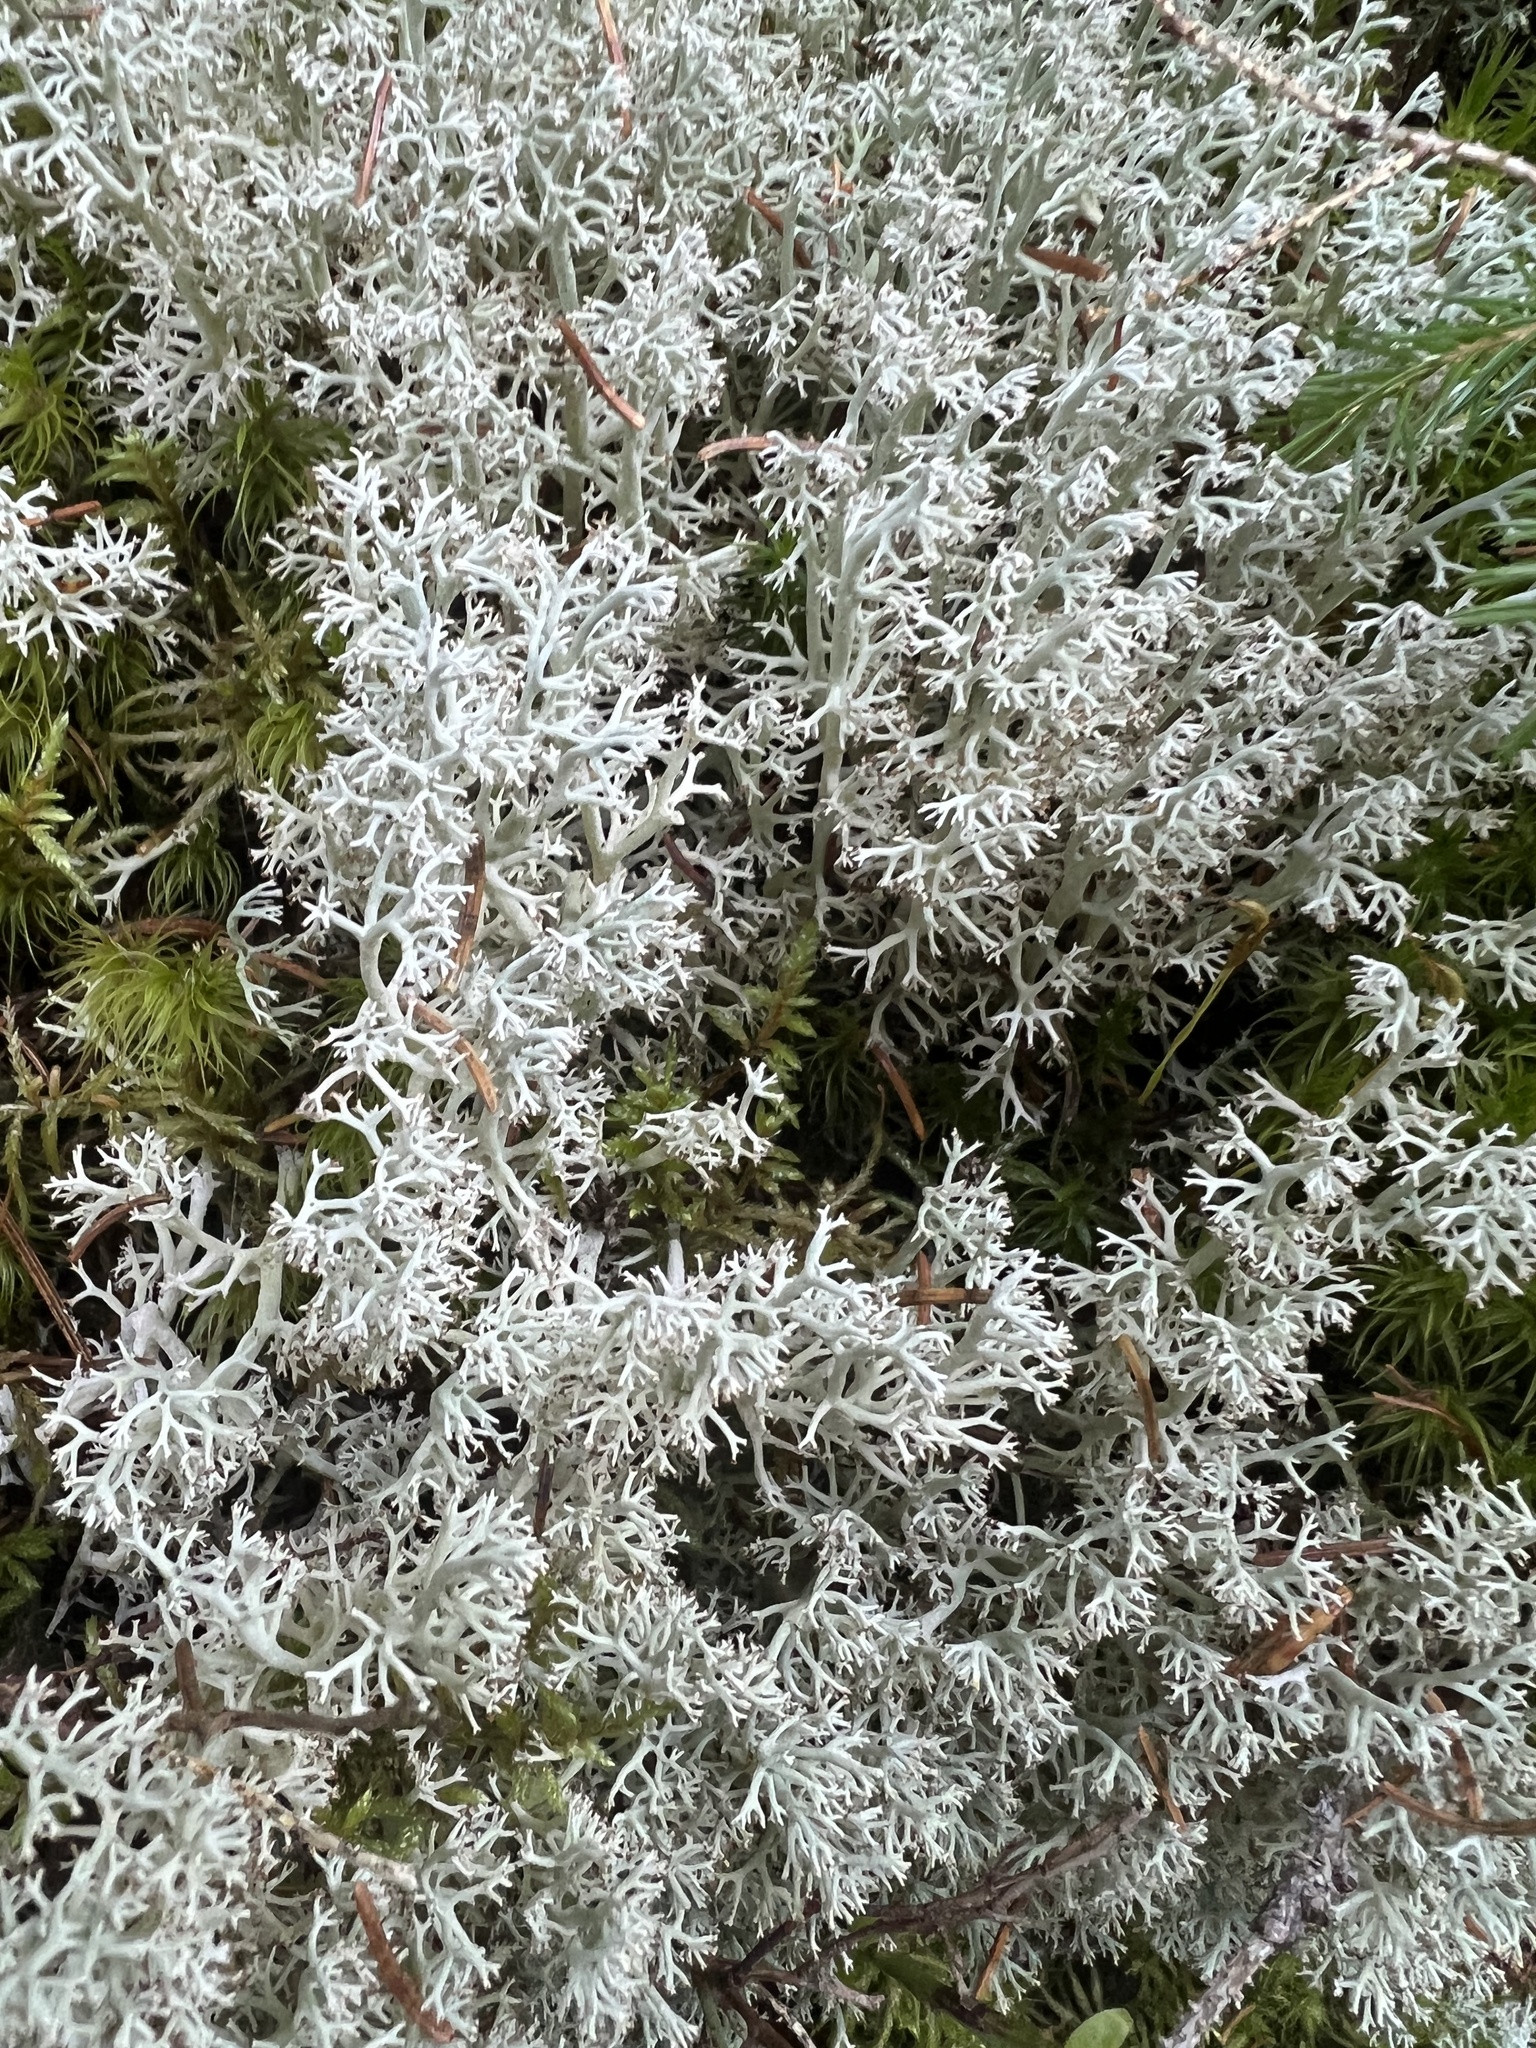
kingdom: Fungi
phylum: Ascomycota
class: Lecanoromycetes
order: Lecanorales
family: Cladoniaceae
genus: Cladonia
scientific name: Cladonia rangiferina
